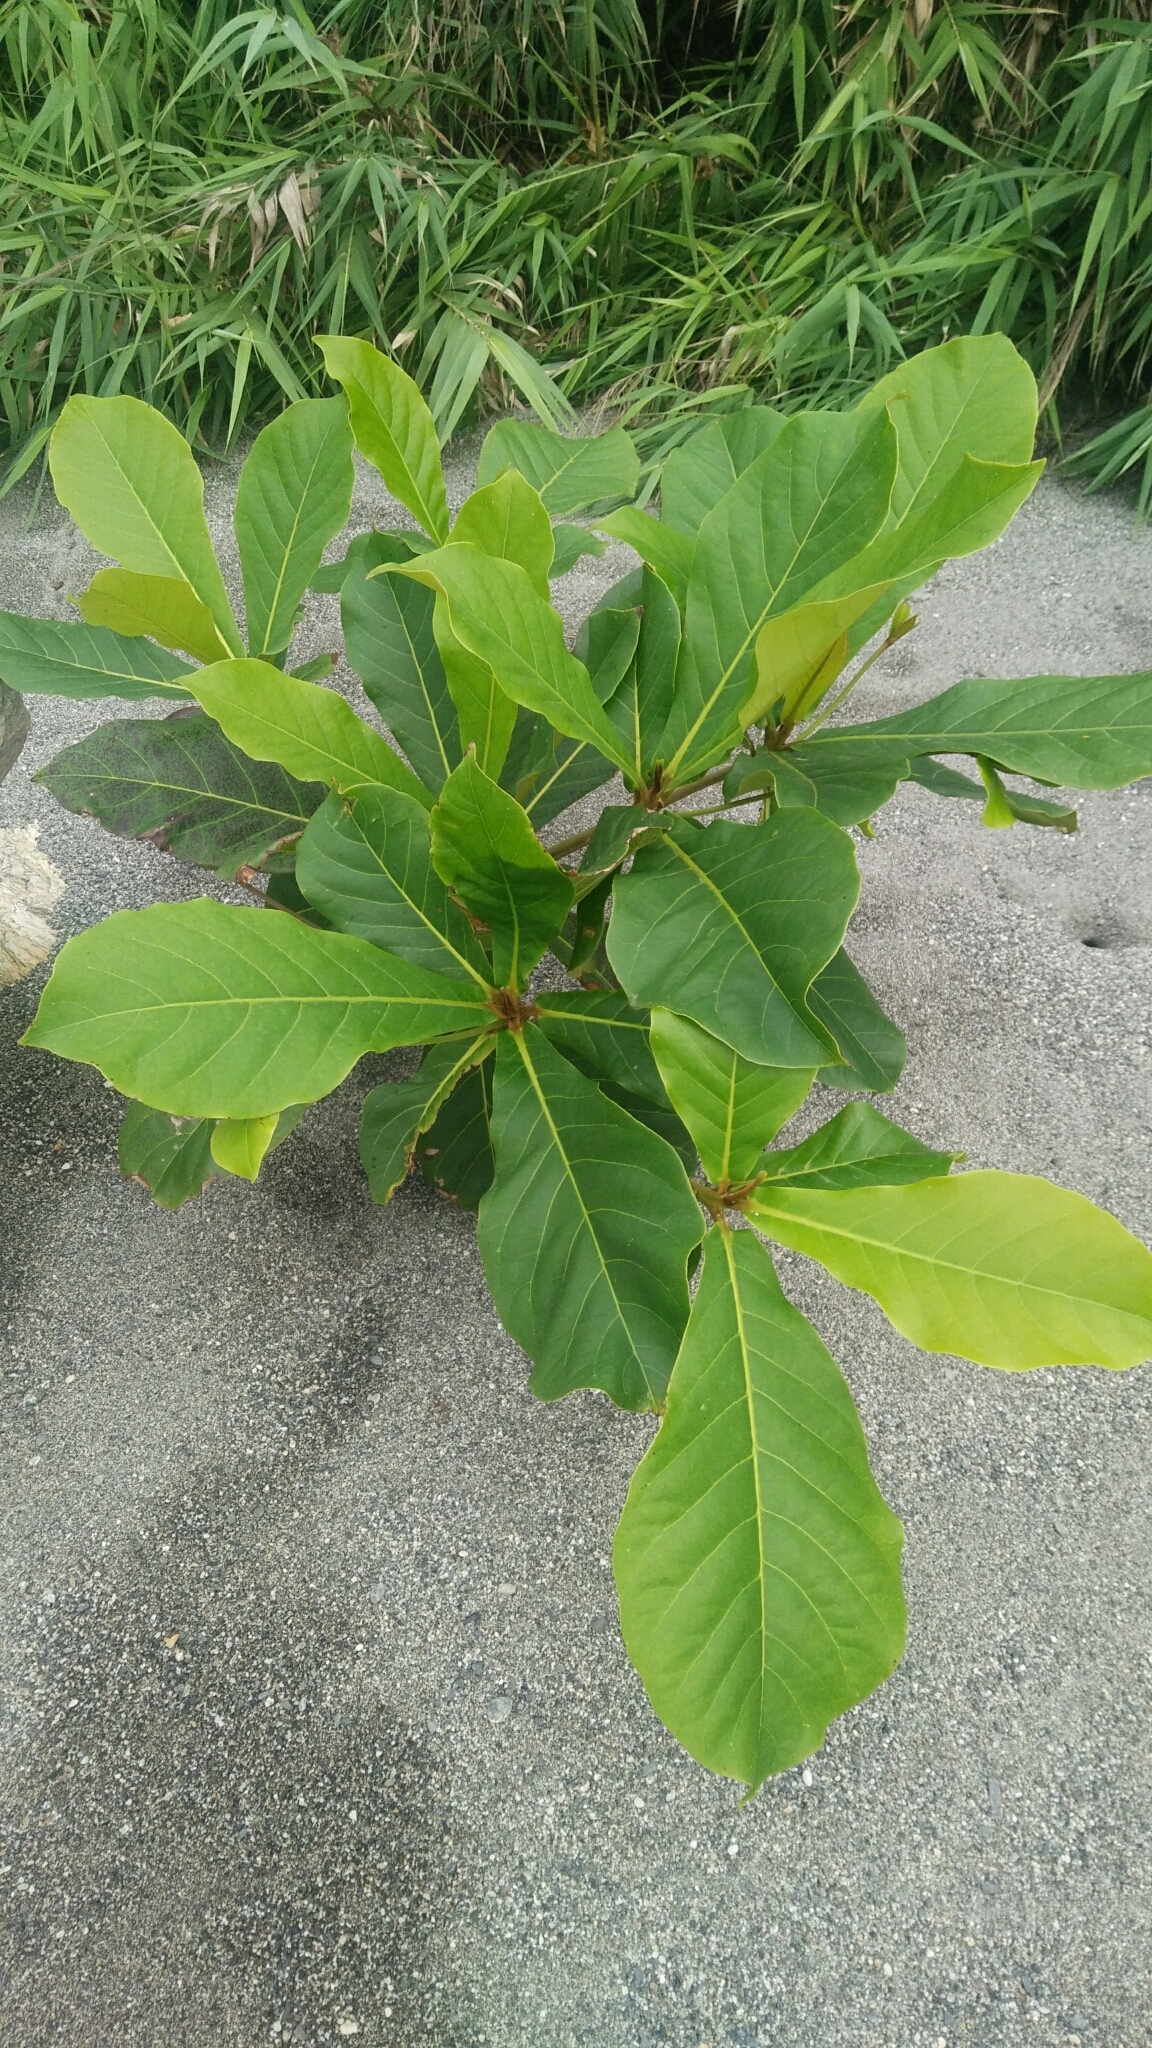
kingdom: Plantae
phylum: Tracheophyta
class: Magnoliopsida
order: Myrtales
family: Combretaceae
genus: Terminalia
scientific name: Terminalia catappa
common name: Tropical almond
